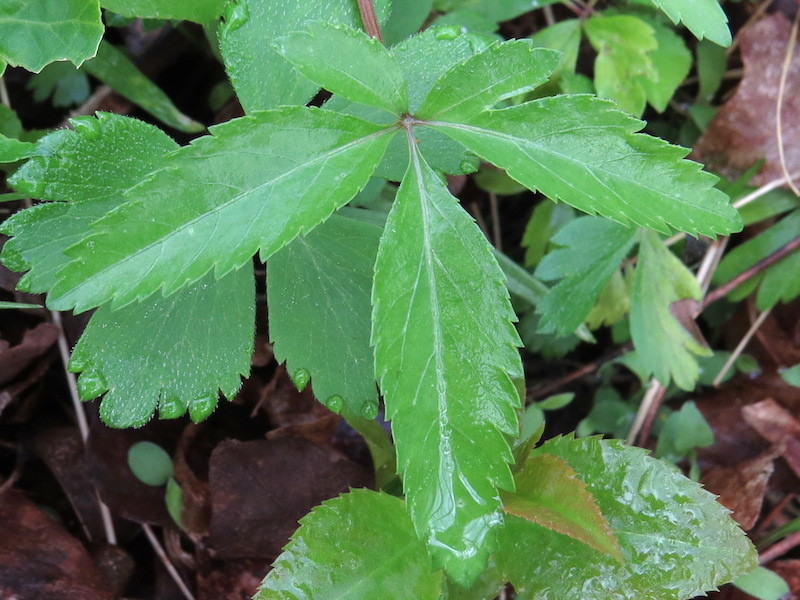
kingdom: Plantae
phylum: Tracheophyta
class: Magnoliopsida
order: Apiales
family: Araliaceae
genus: Panax
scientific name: Panax trifolius
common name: Dwarf ginseng
